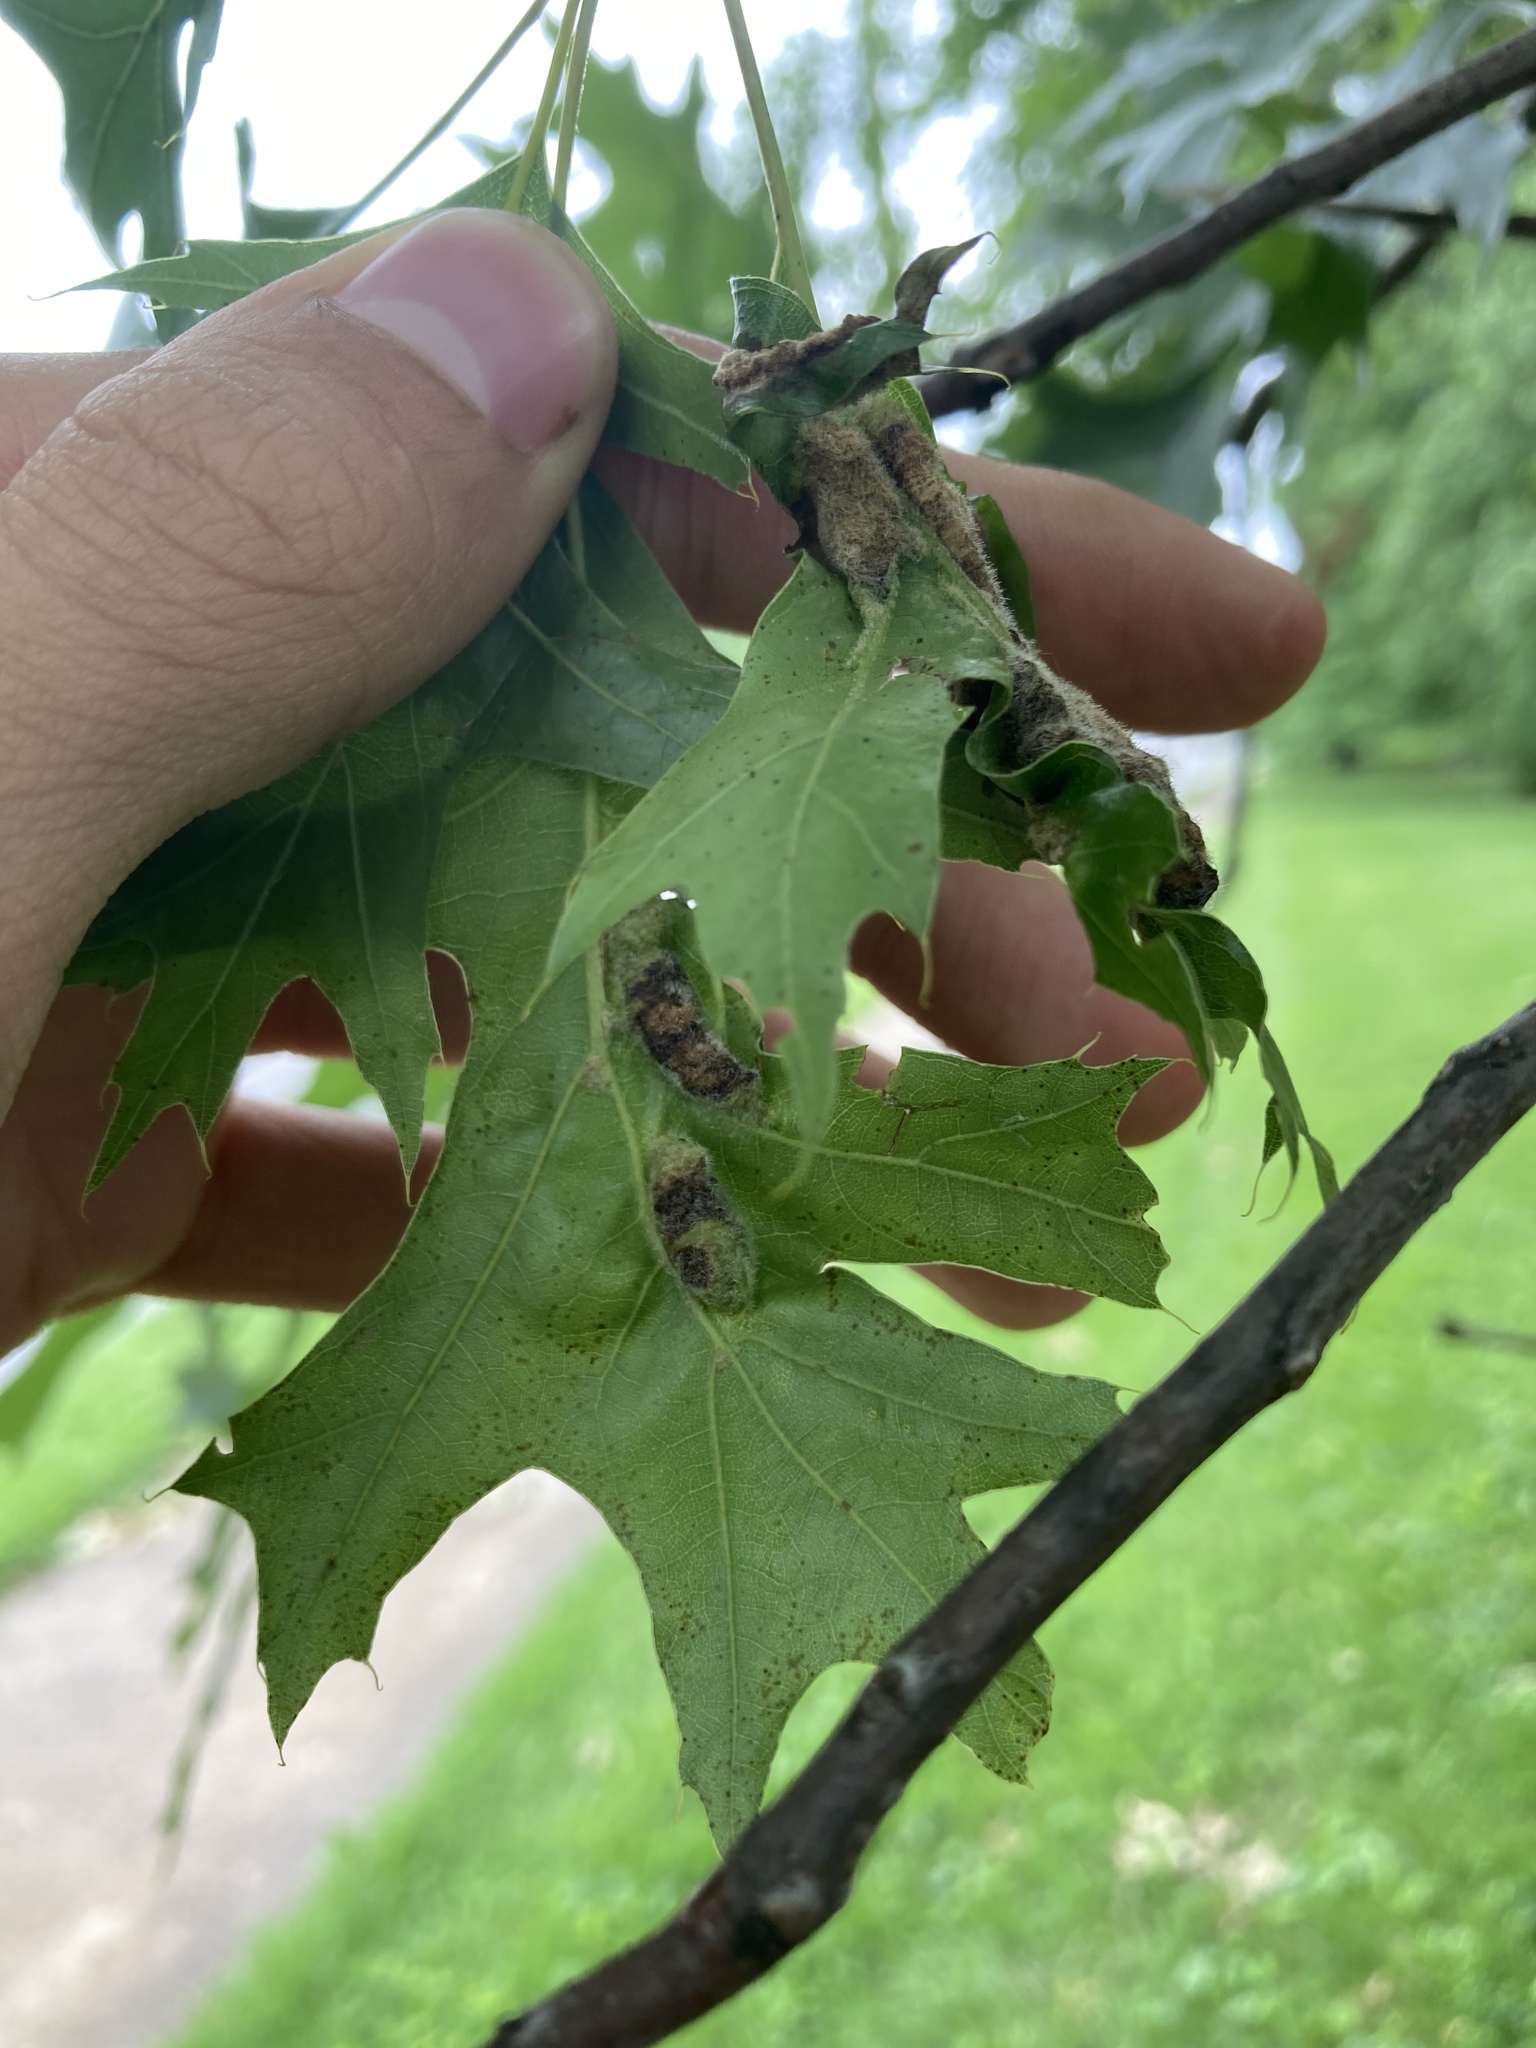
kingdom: Animalia
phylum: Arthropoda
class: Insecta
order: Diptera
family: Cecidomyiidae
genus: Macrodiplosis
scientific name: Macrodiplosis niveipila
